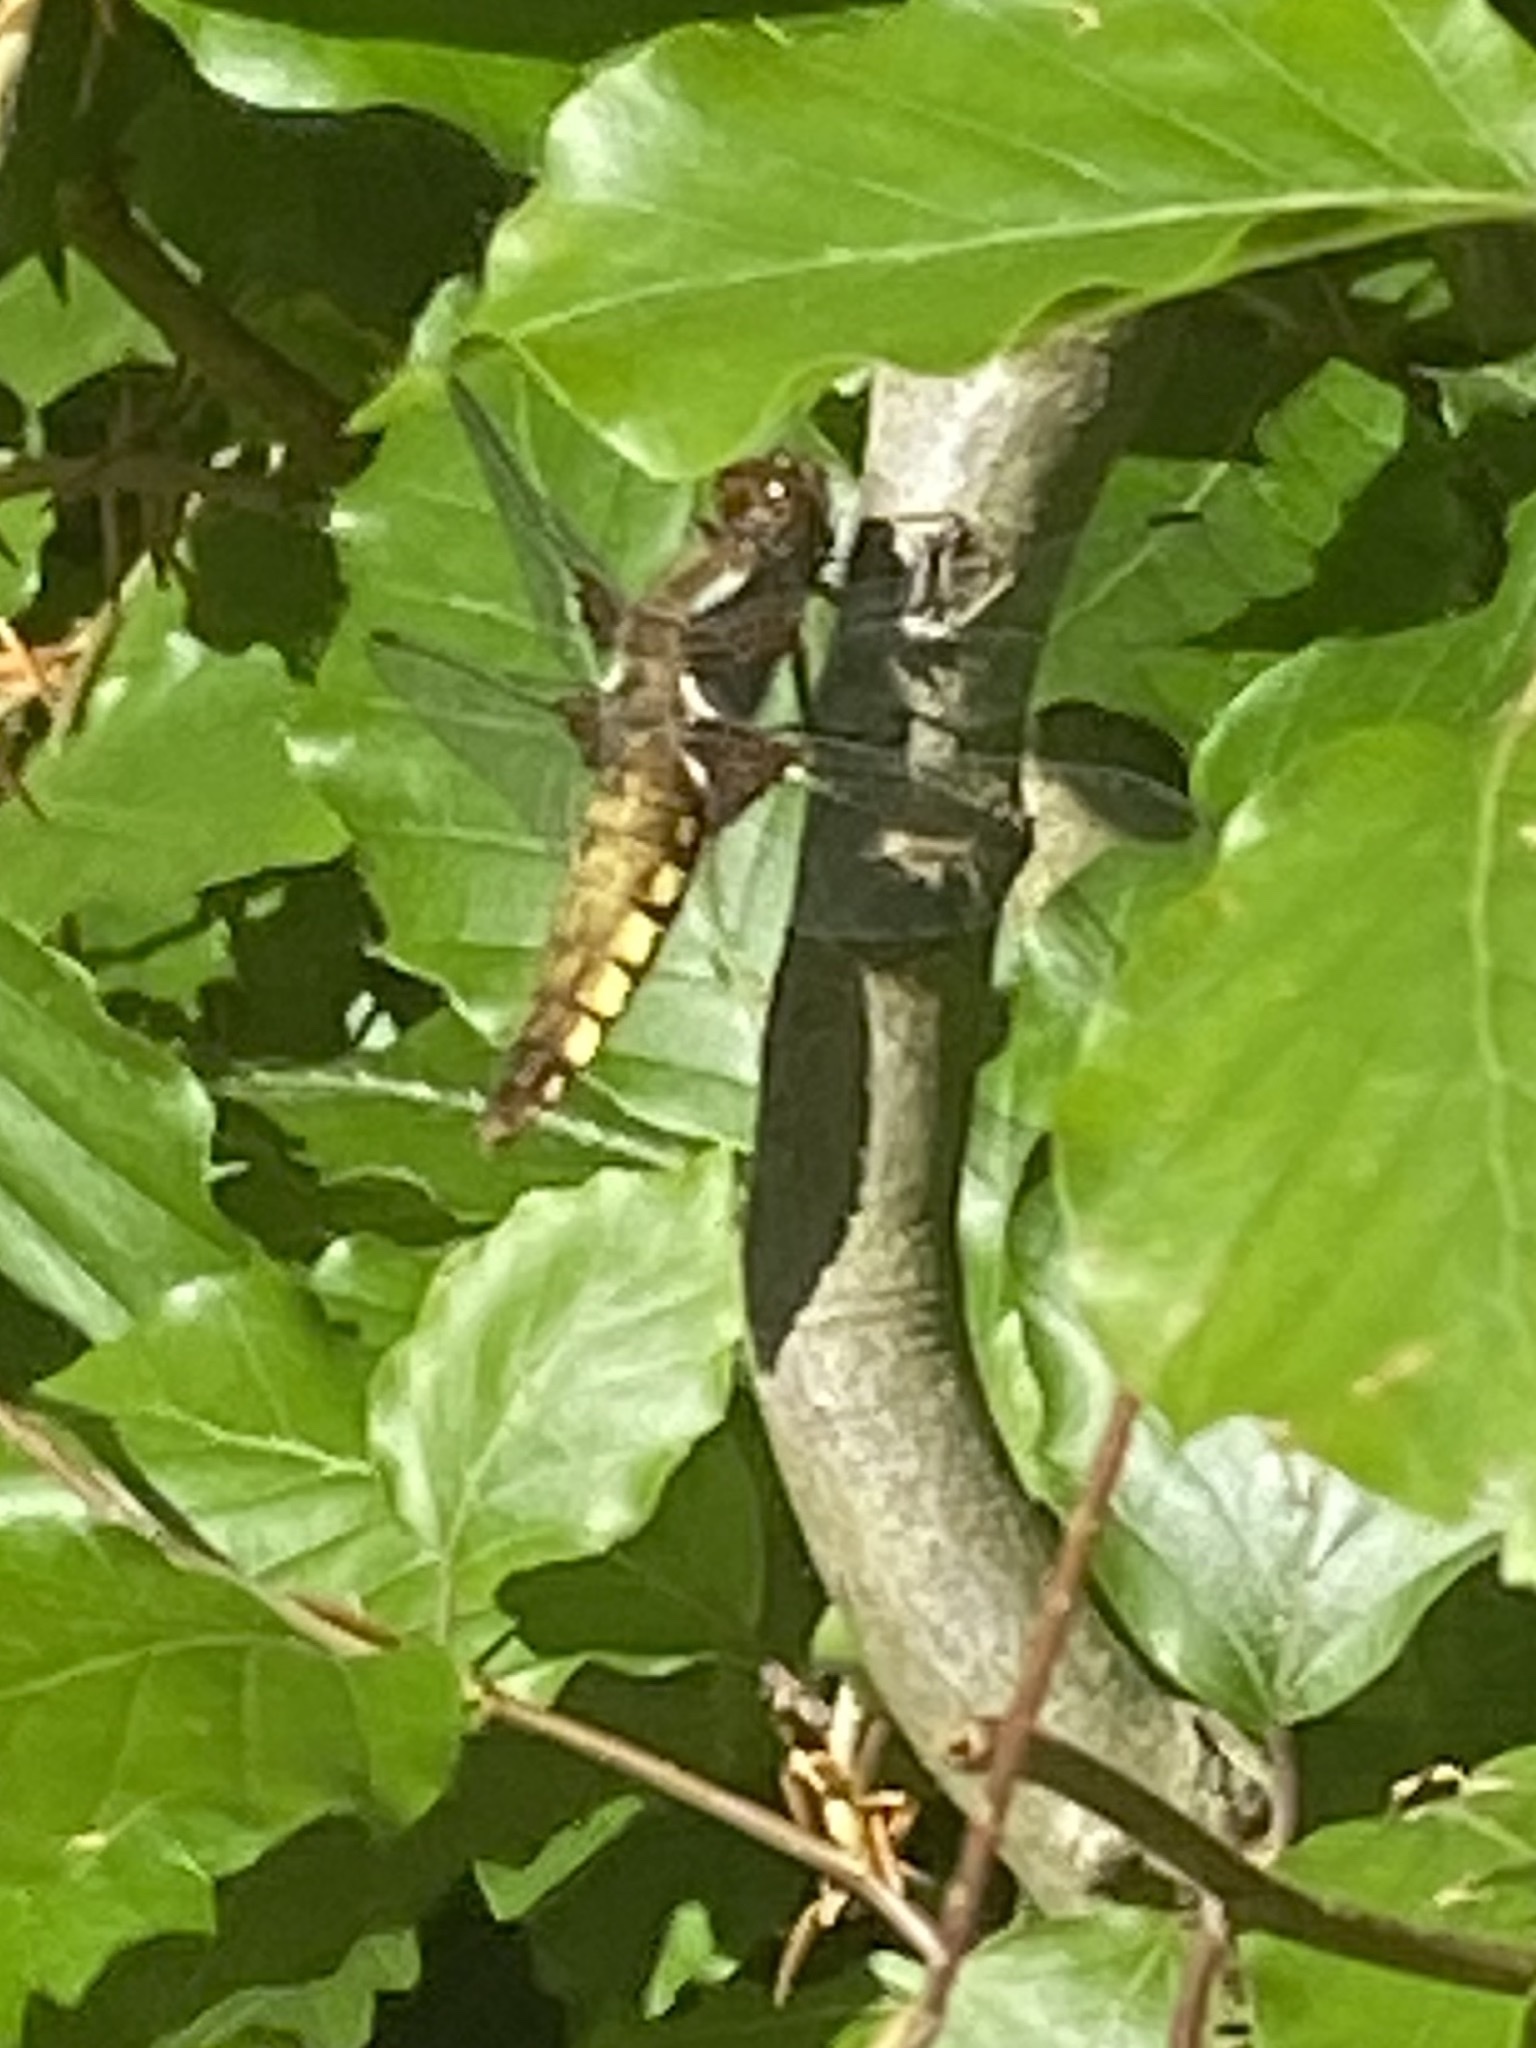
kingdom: Animalia
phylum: Arthropoda
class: Insecta
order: Odonata
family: Libellulidae
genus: Libellula
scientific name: Libellula depressa
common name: Broad-bodied chaser
